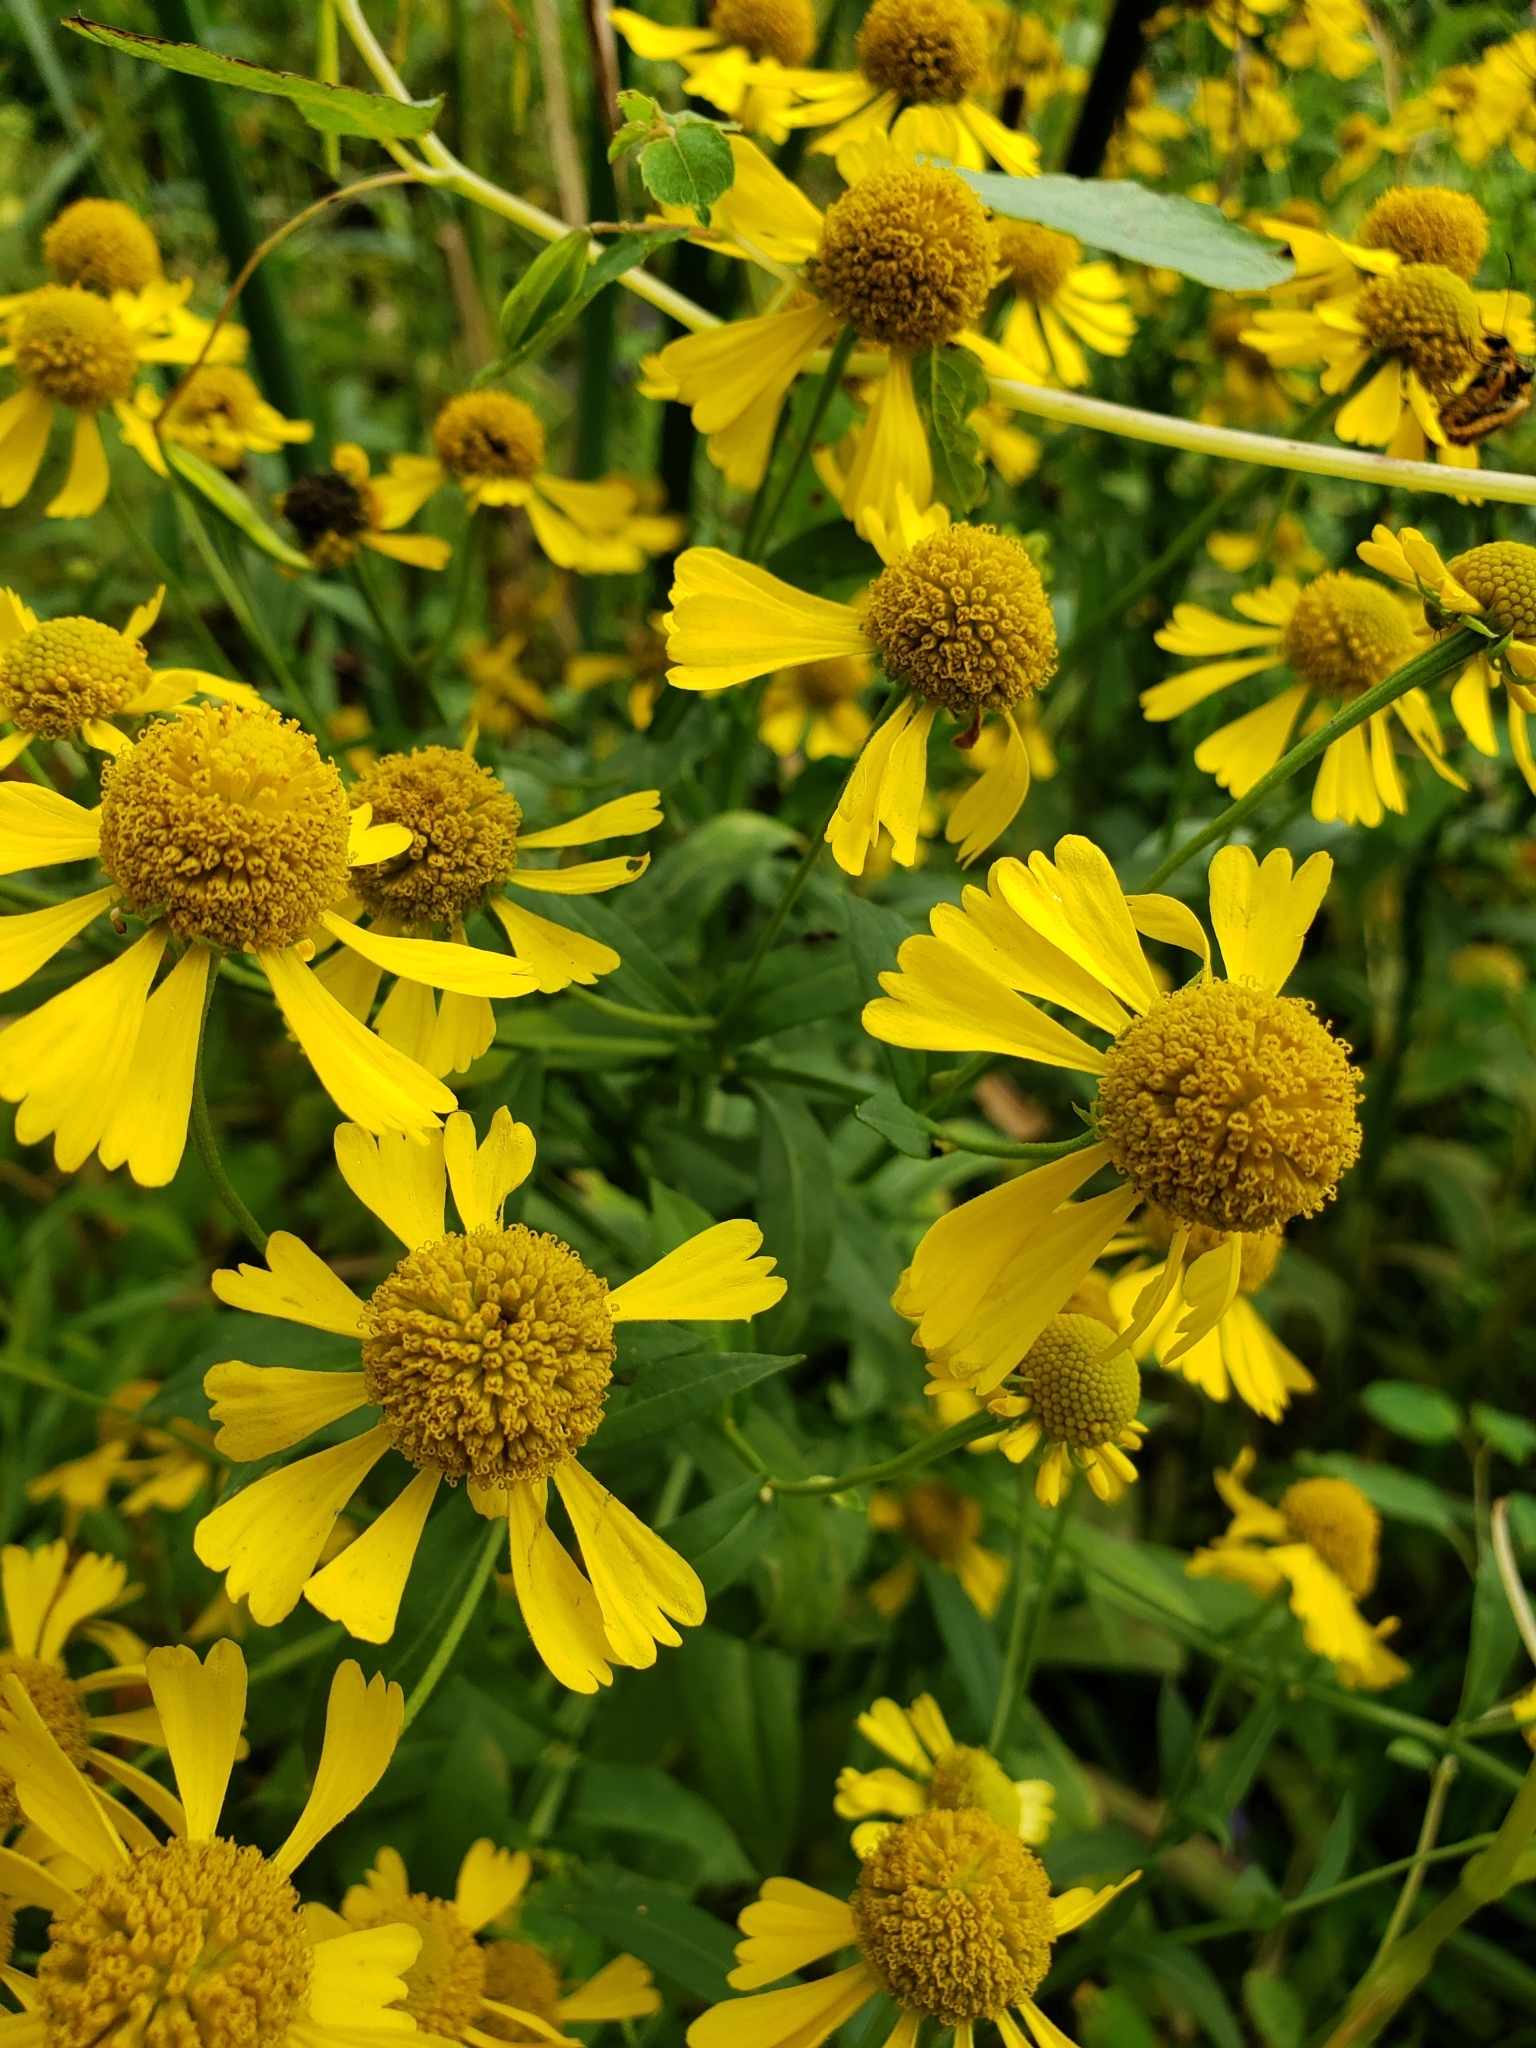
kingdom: Plantae
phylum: Tracheophyta
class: Magnoliopsida
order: Asterales
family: Asteraceae
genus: Helenium
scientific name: Helenium autumnale
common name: Sneezeweed
